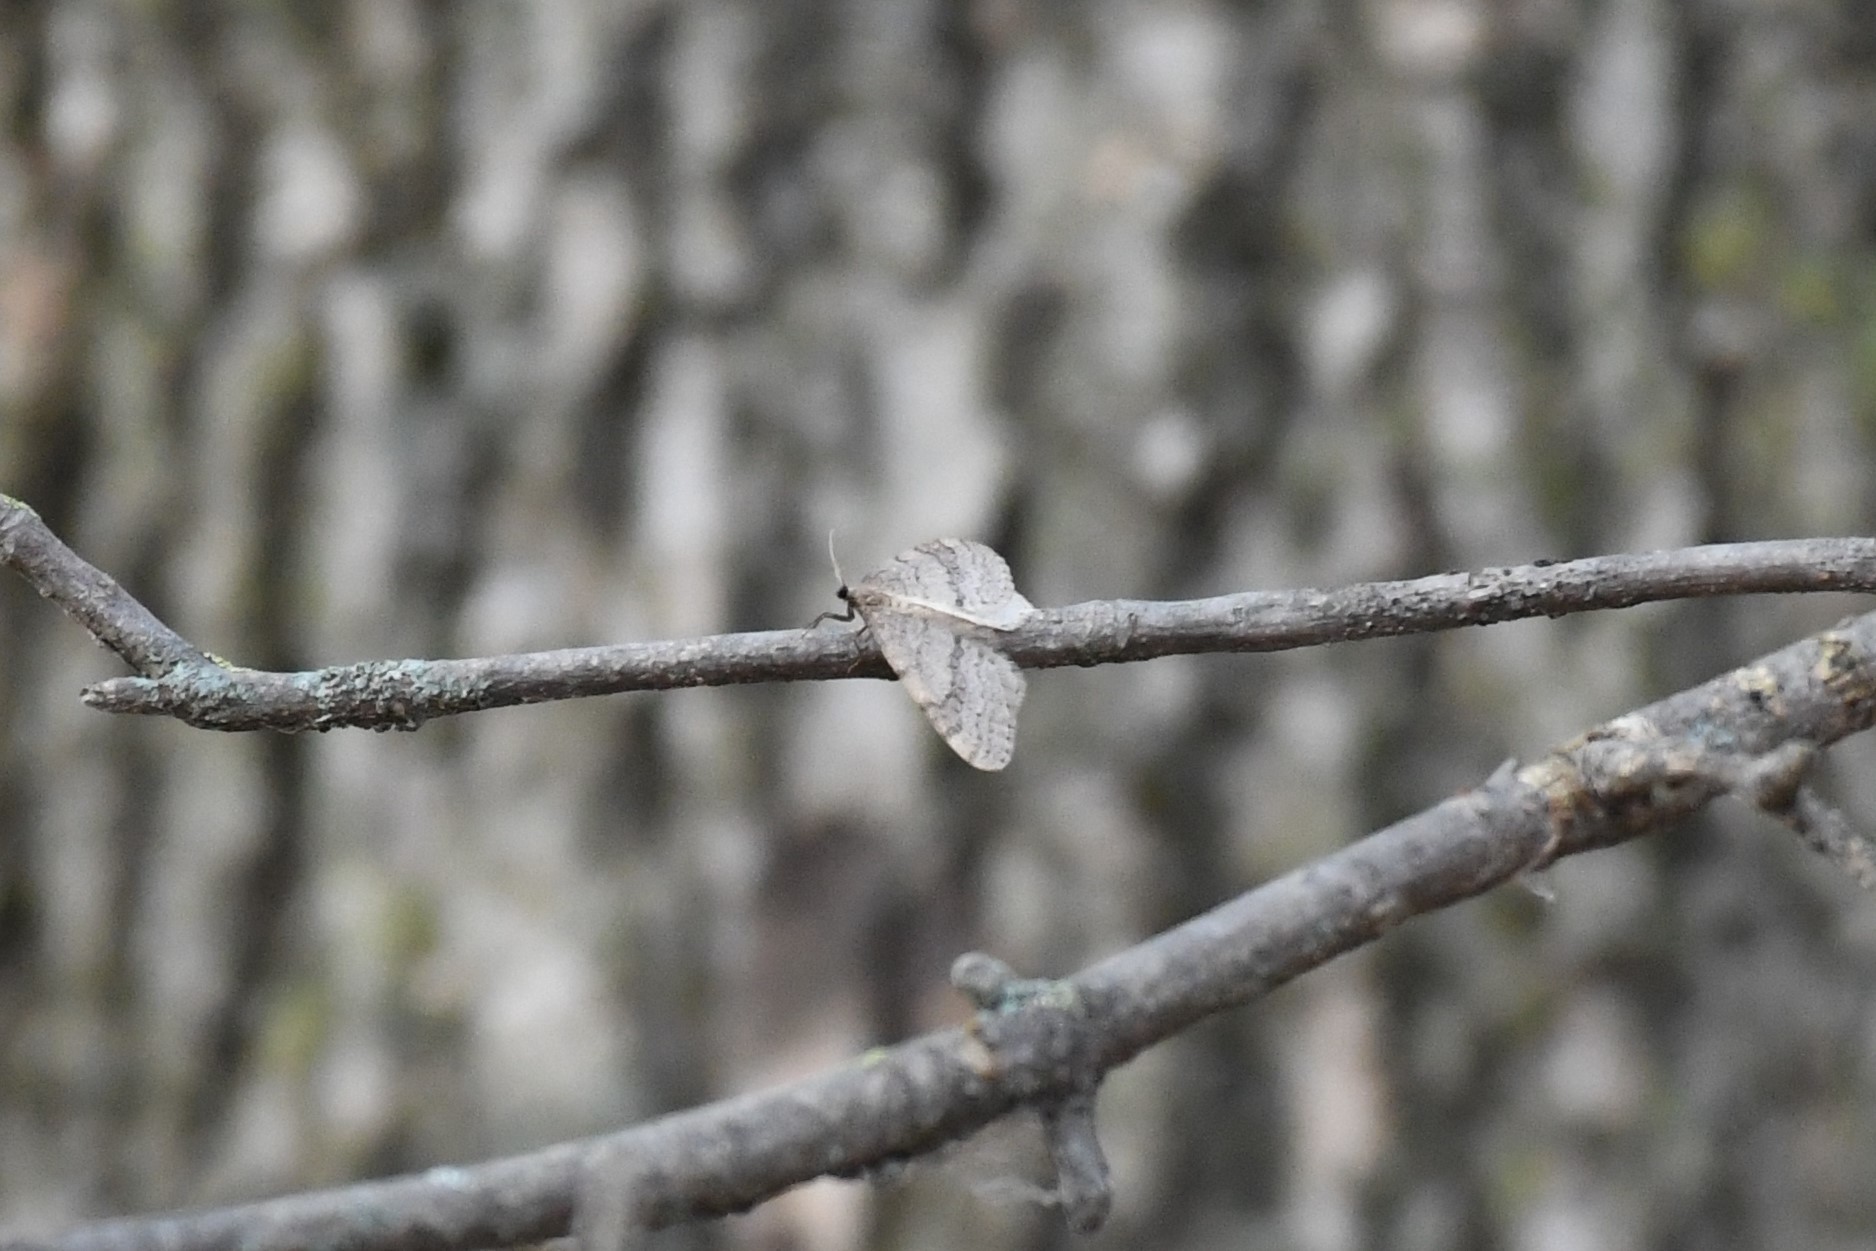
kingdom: Animalia
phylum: Arthropoda
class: Insecta
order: Lepidoptera
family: Geometridae
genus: Operophtera
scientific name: Operophtera bruceata
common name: Bruce spanworm
